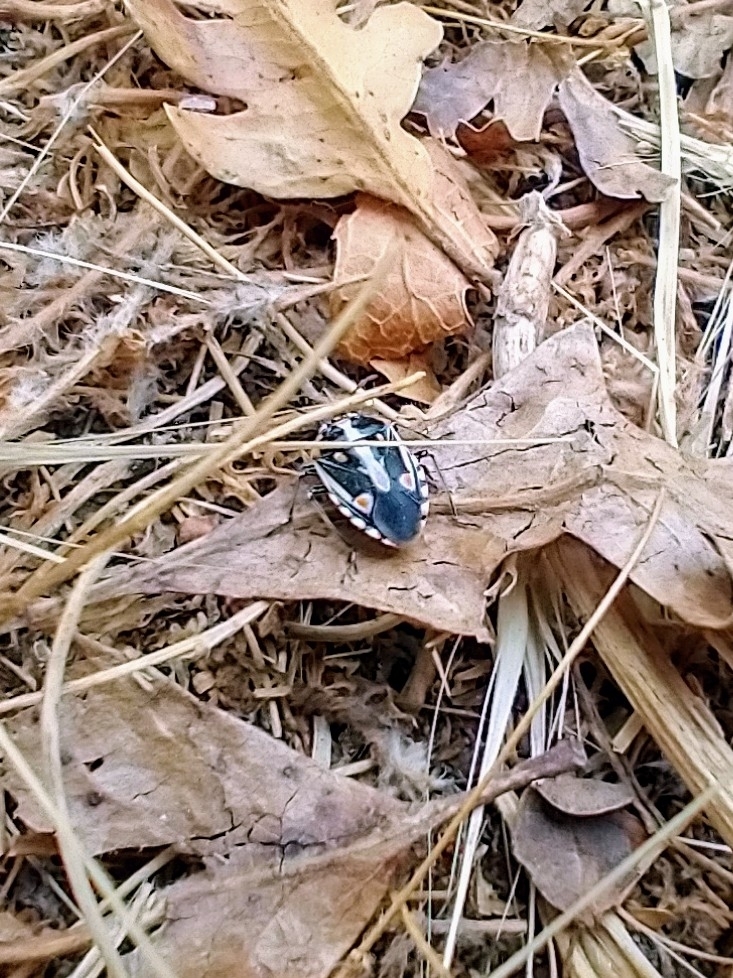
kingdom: Animalia
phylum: Arthropoda
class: Insecta
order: Hemiptera
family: Pentatomidae
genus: Bagrada
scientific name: Bagrada hilaris
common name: Bagrada bug
